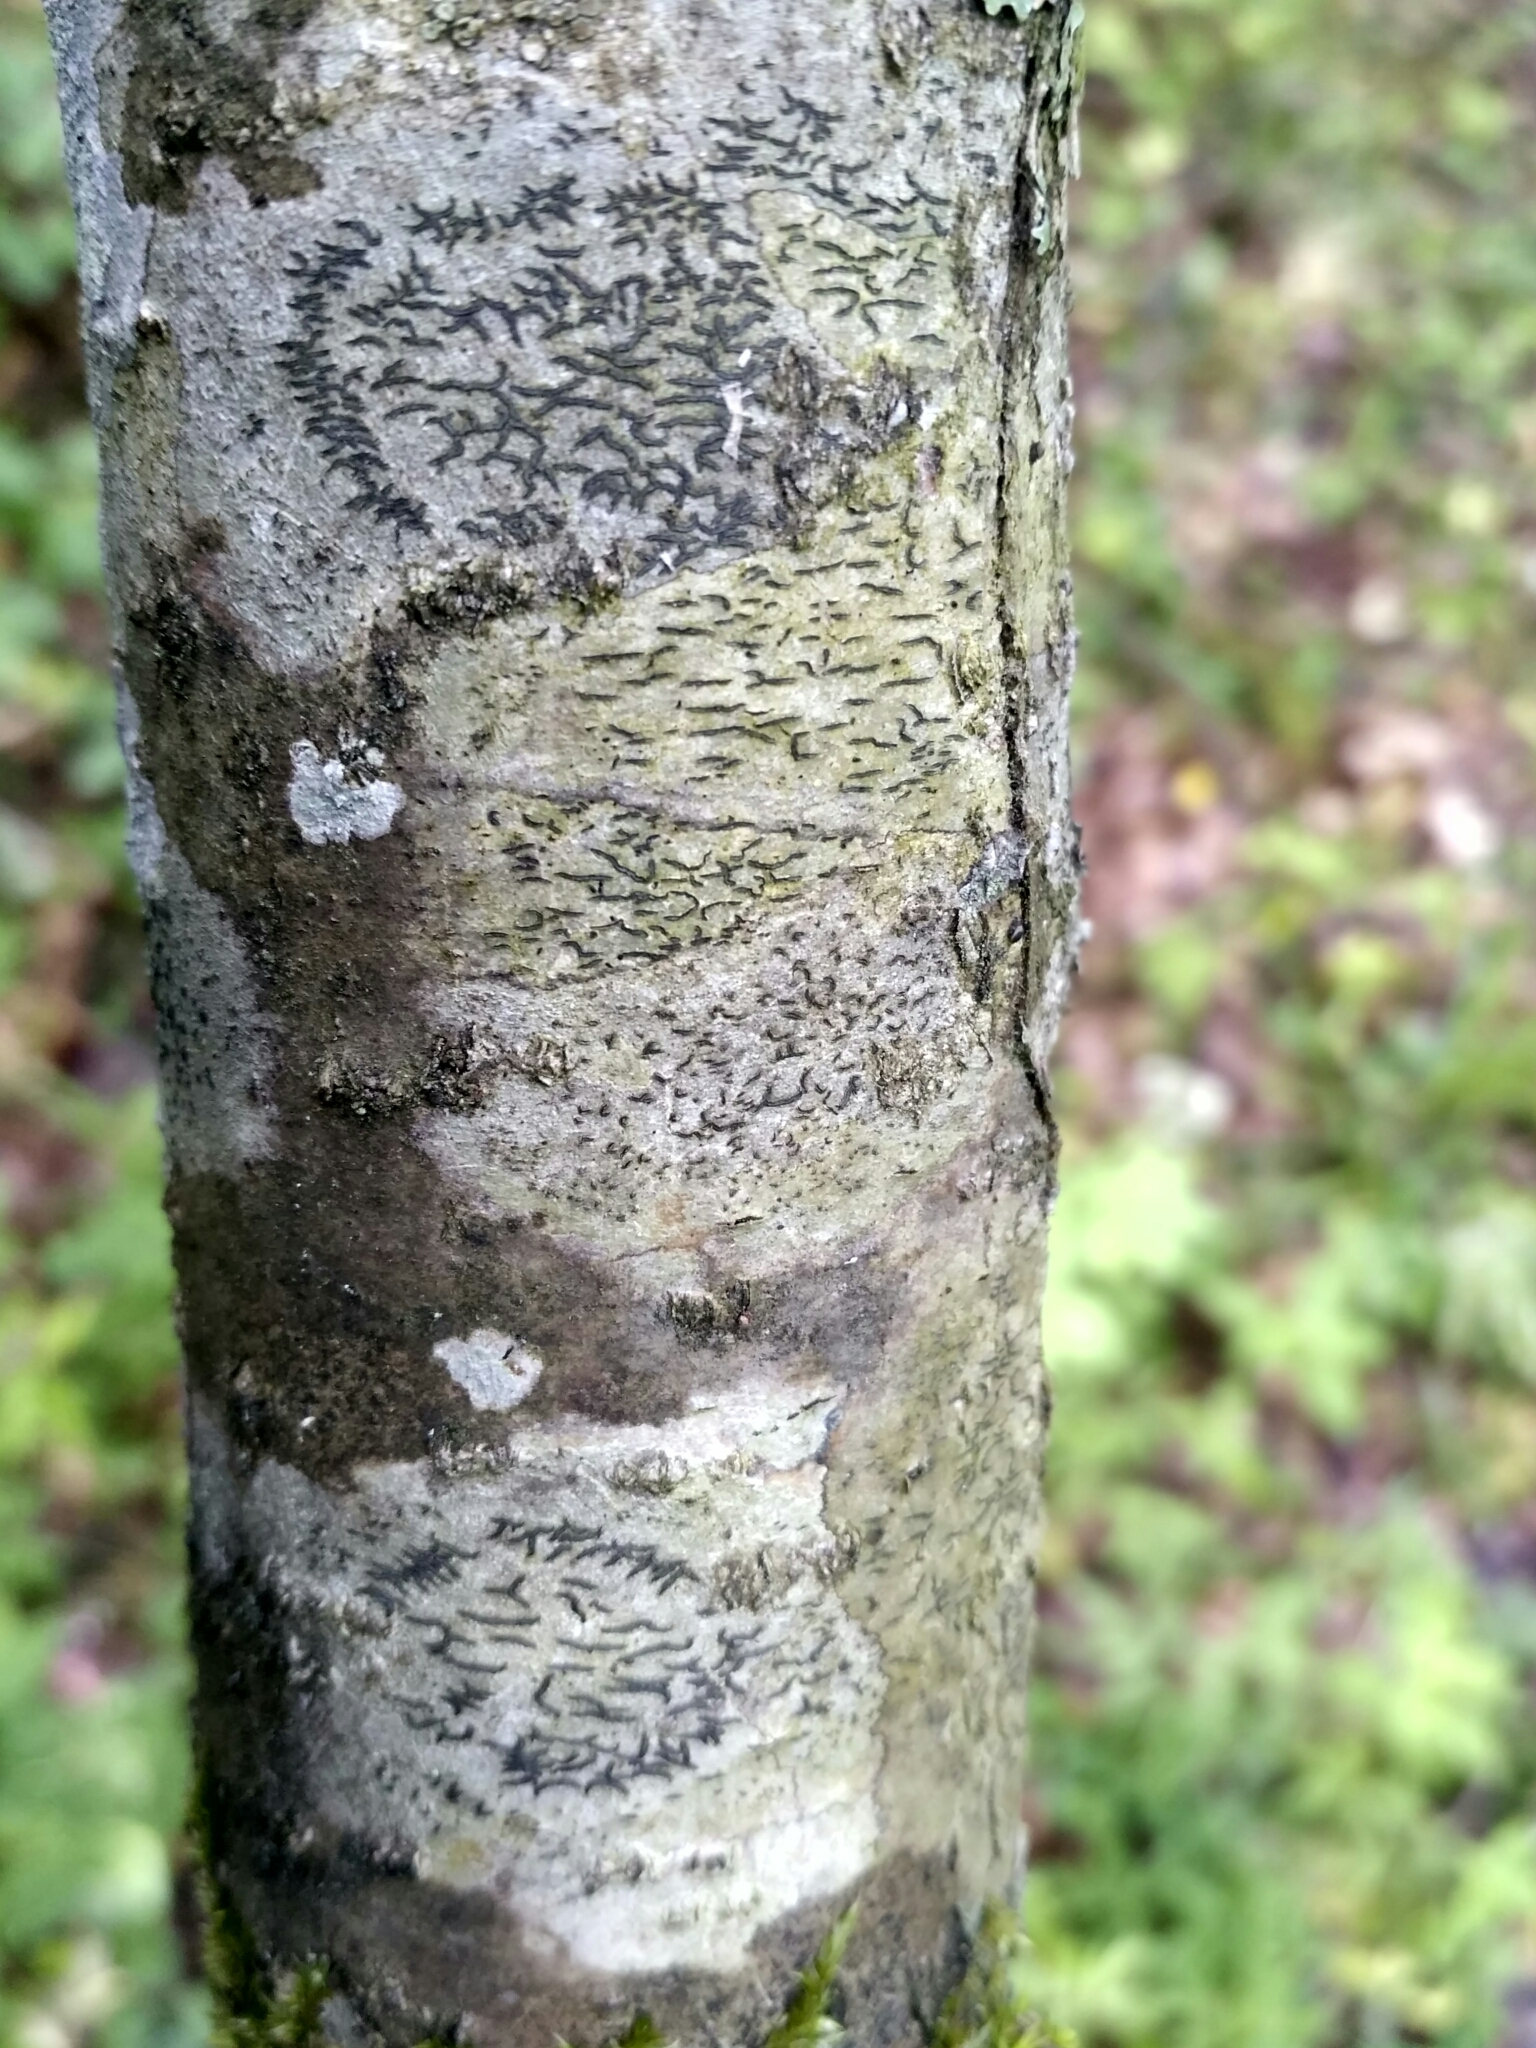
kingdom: Fungi
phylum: Ascomycota
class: Lecanoromycetes
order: Ostropales
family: Graphidaceae
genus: Graphis
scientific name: Graphis scripta
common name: Script lichen
